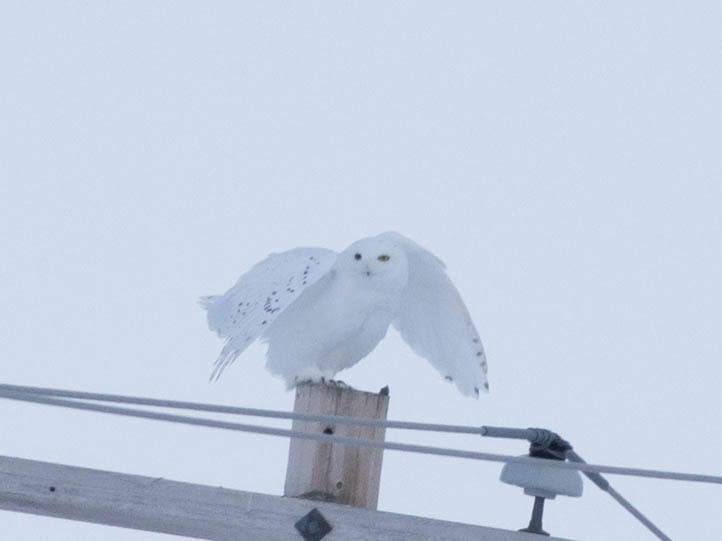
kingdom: Animalia
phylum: Chordata
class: Aves
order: Strigiformes
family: Strigidae
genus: Bubo
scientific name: Bubo scandiacus
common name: Snowy owl
